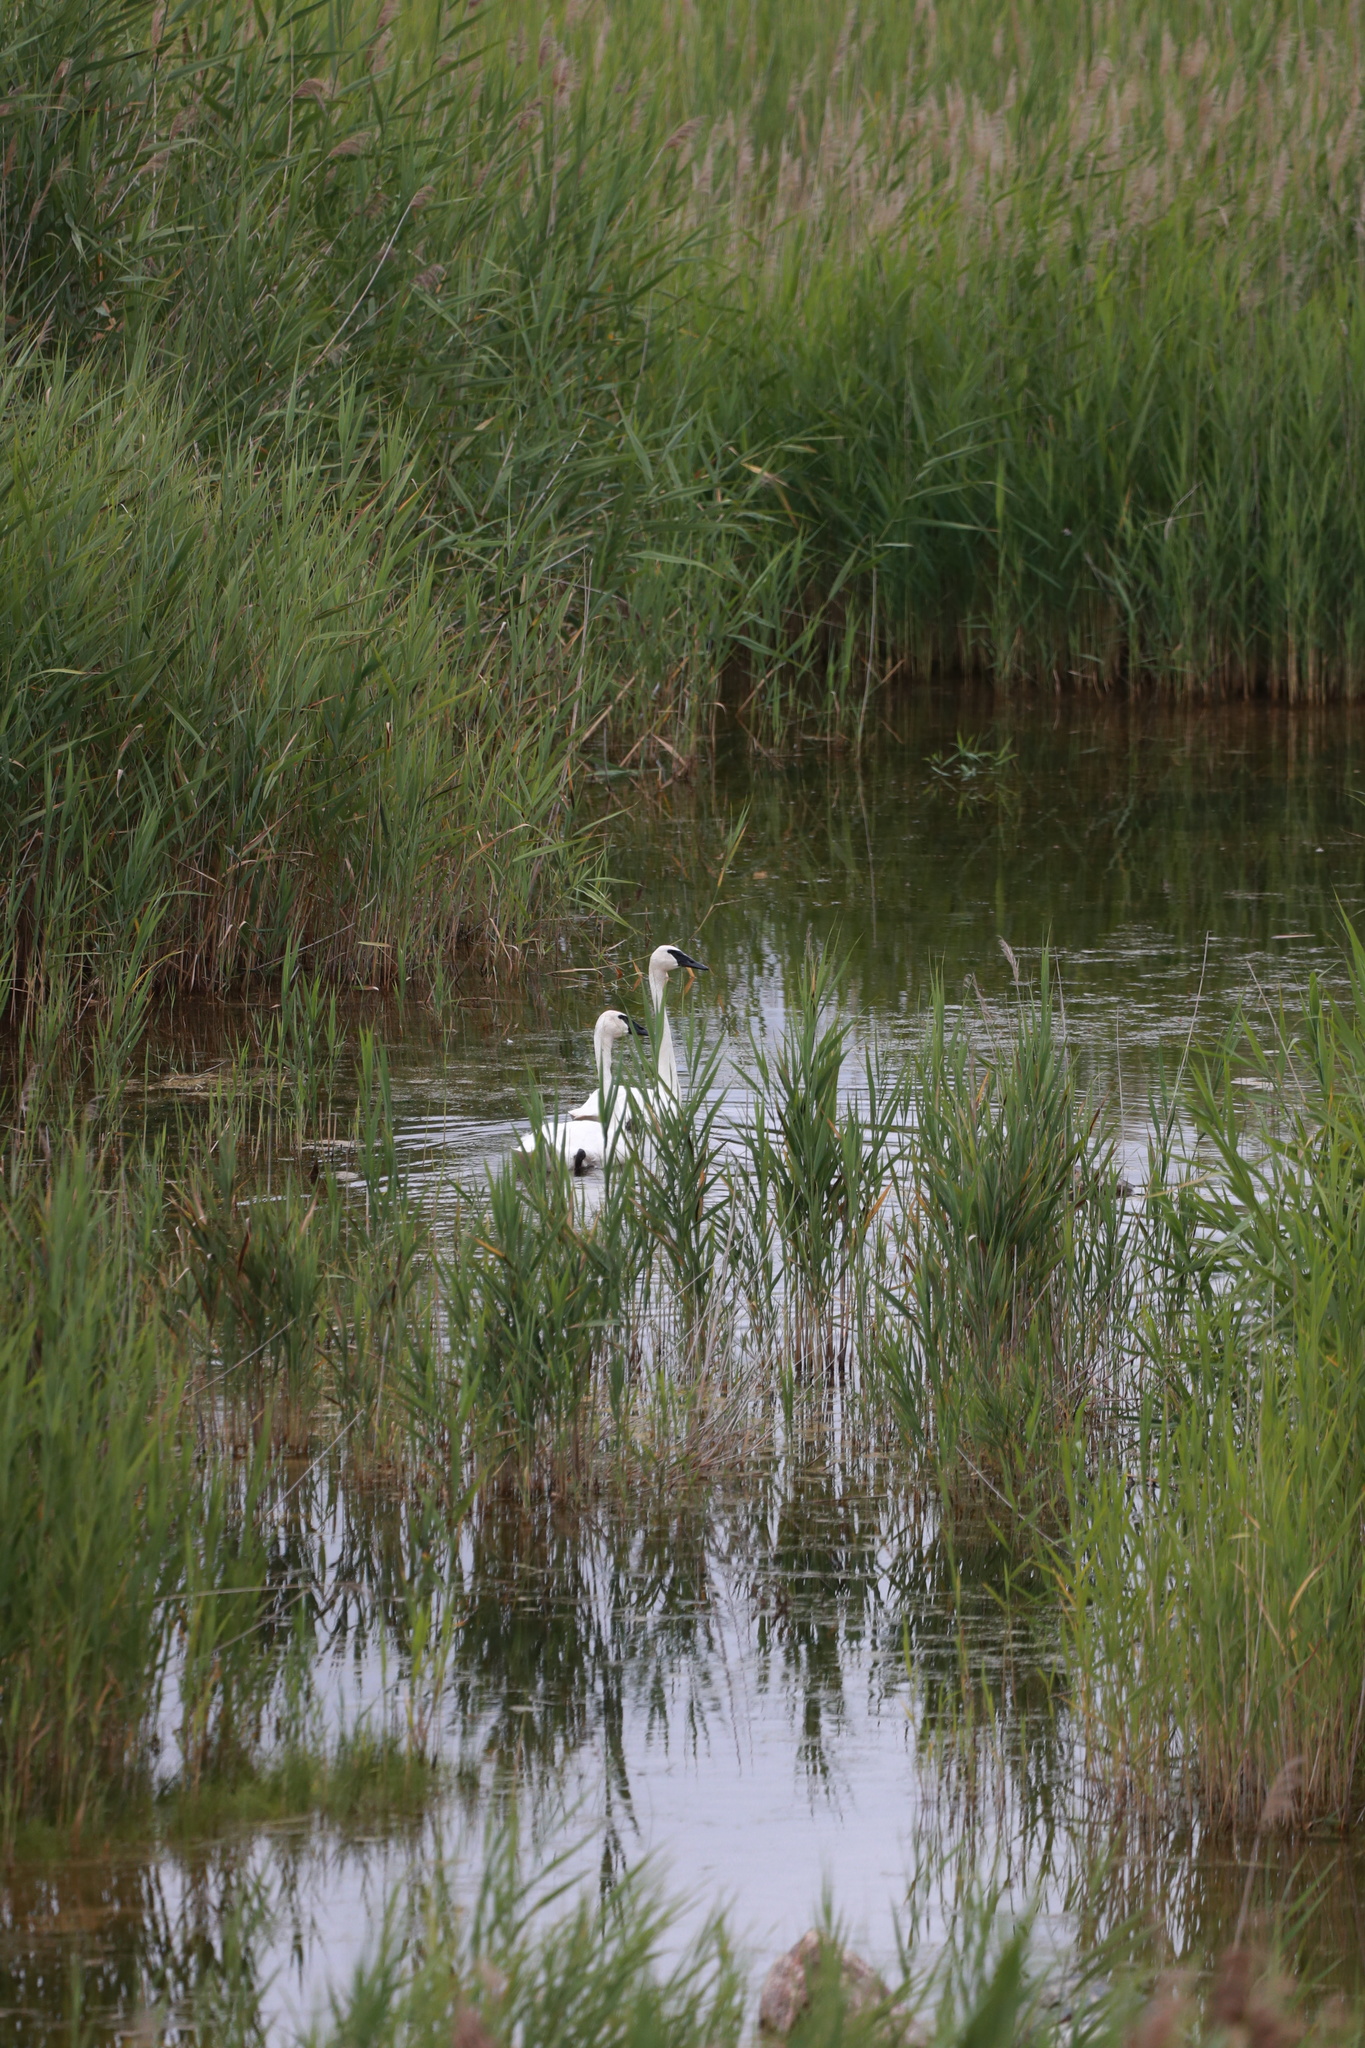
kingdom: Animalia
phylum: Chordata
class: Aves
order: Anseriformes
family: Anatidae
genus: Cygnus
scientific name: Cygnus buccinator
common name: Trumpeter swan
